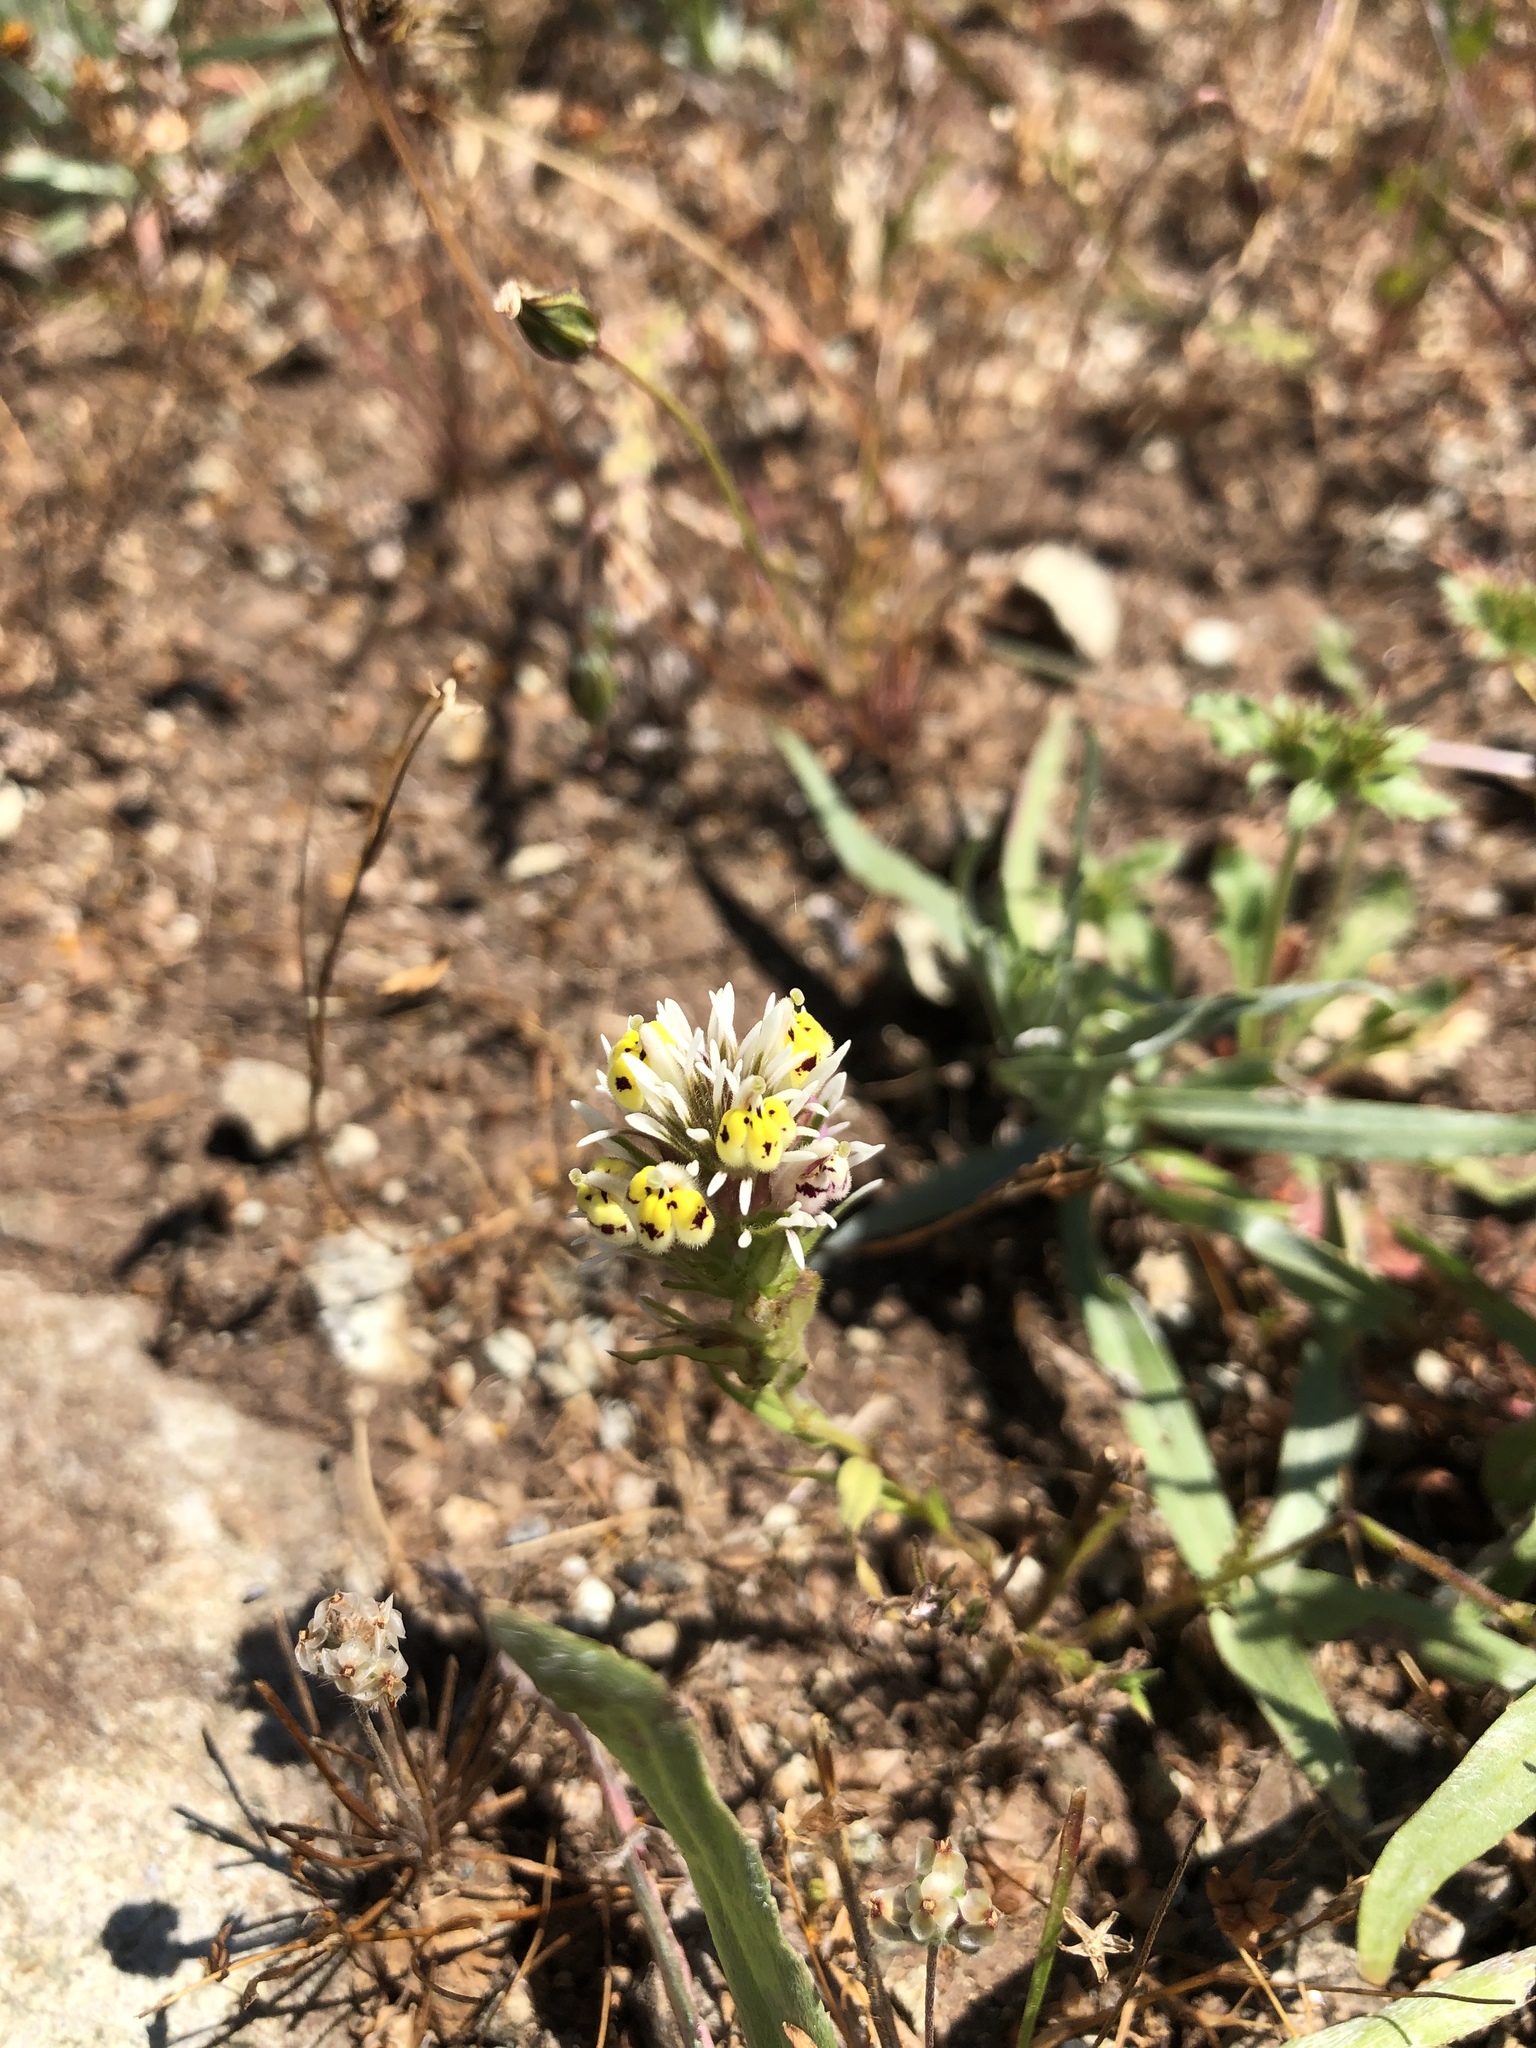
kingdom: Plantae
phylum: Tracheophyta
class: Magnoliopsida
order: Lamiales
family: Orobanchaceae
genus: Castilleja
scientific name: Castilleja densiflora
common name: Dense-flower indian paintbrush
